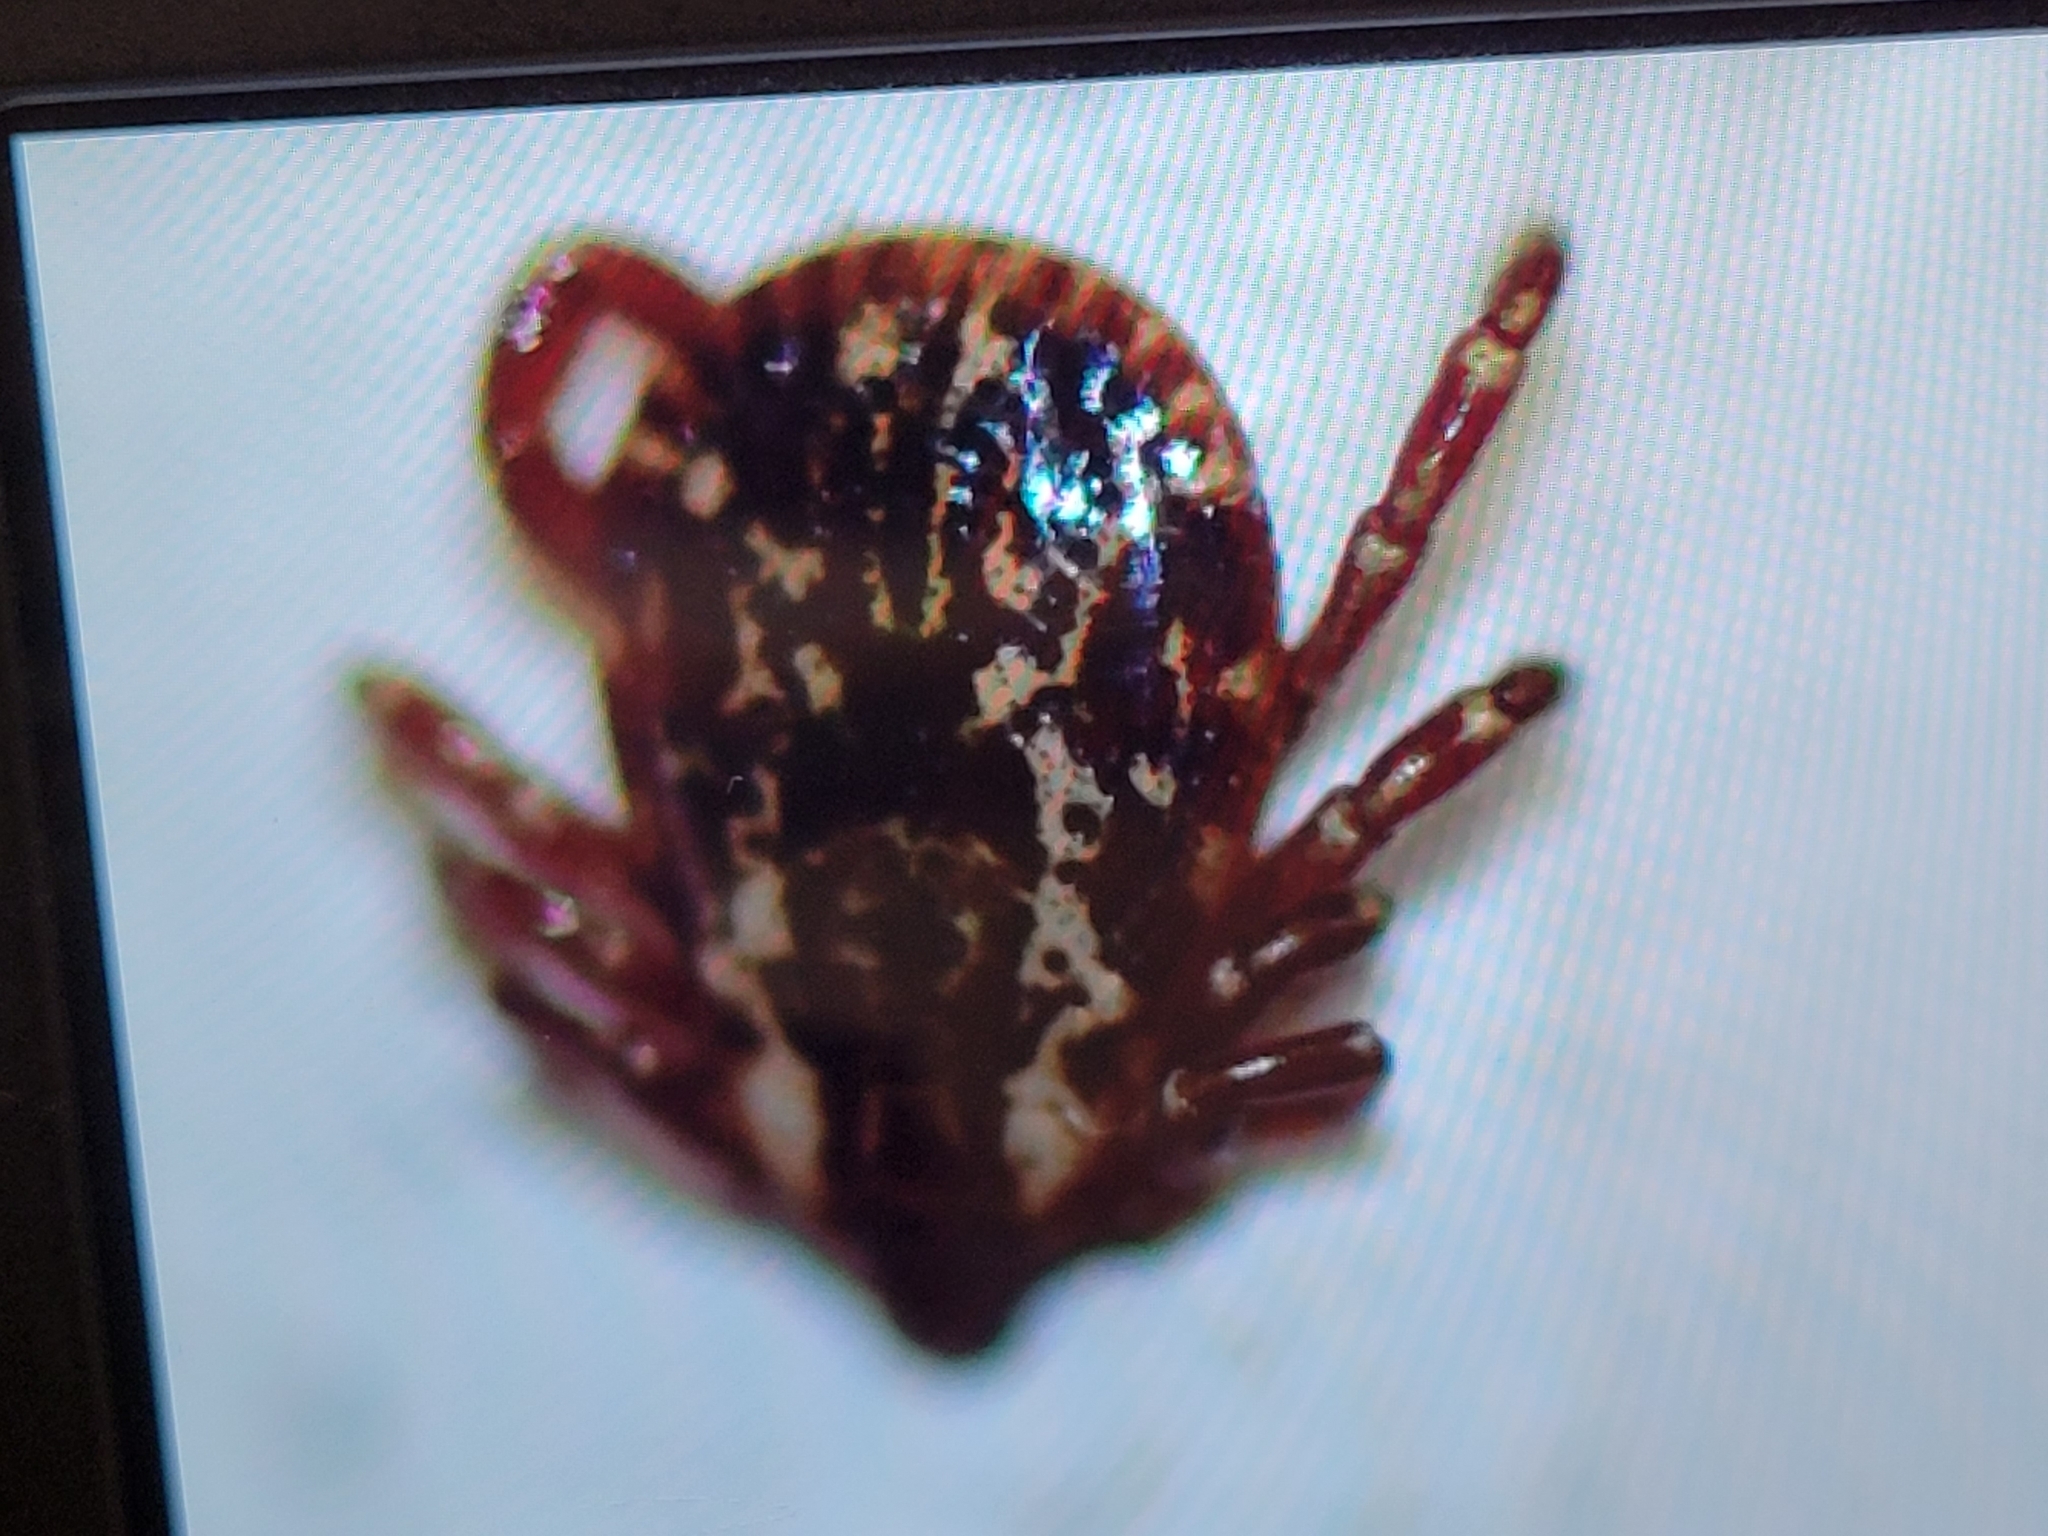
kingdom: Animalia
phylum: Arthropoda
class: Arachnida
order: Ixodida
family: Ixodidae
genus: Dermacentor
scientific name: Dermacentor variabilis
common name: American dog tick
